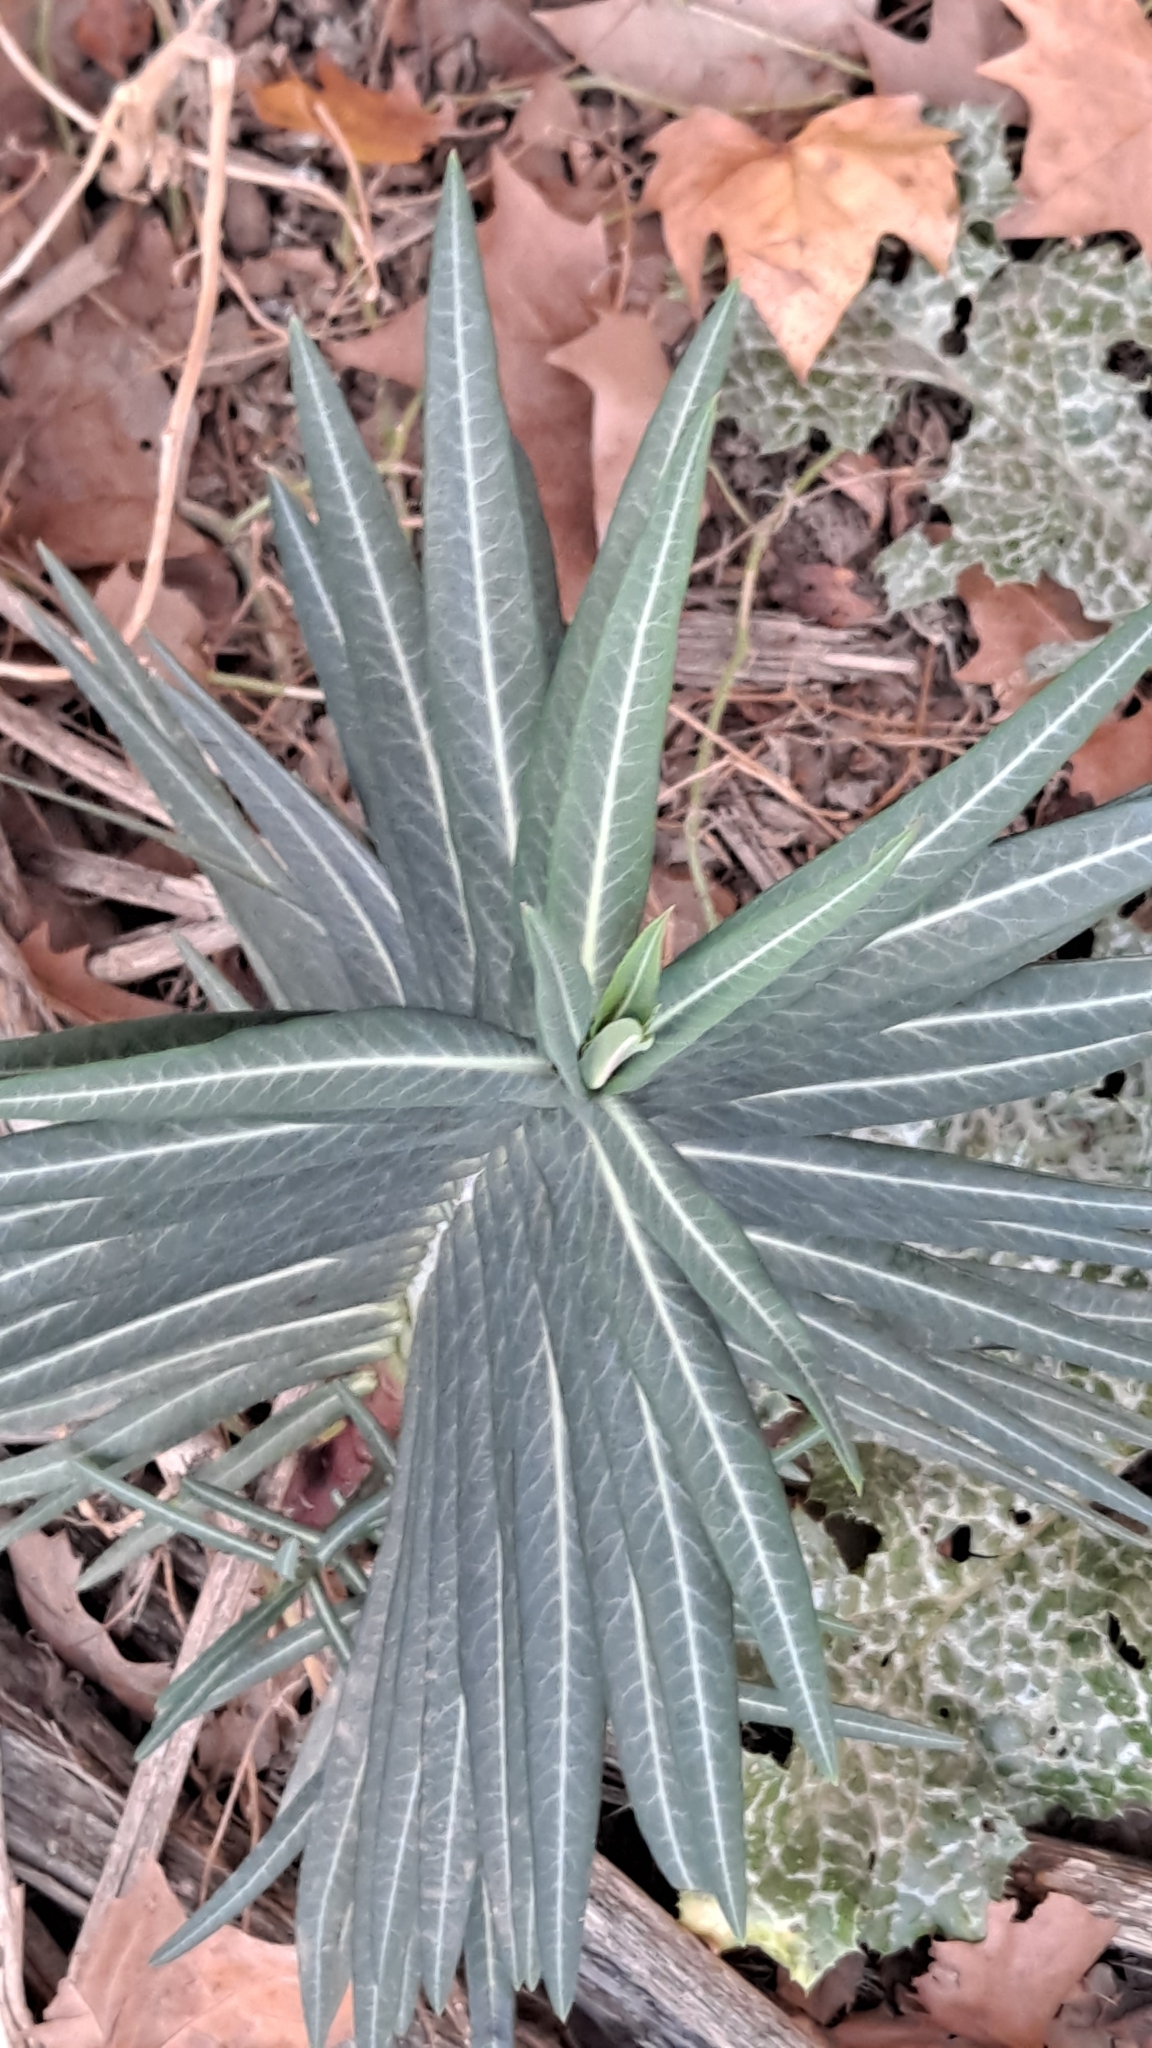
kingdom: Plantae
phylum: Tracheophyta
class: Magnoliopsida
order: Malpighiales
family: Euphorbiaceae
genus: Euphorbia
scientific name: Euphorbia lathyris
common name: Caper spurge
